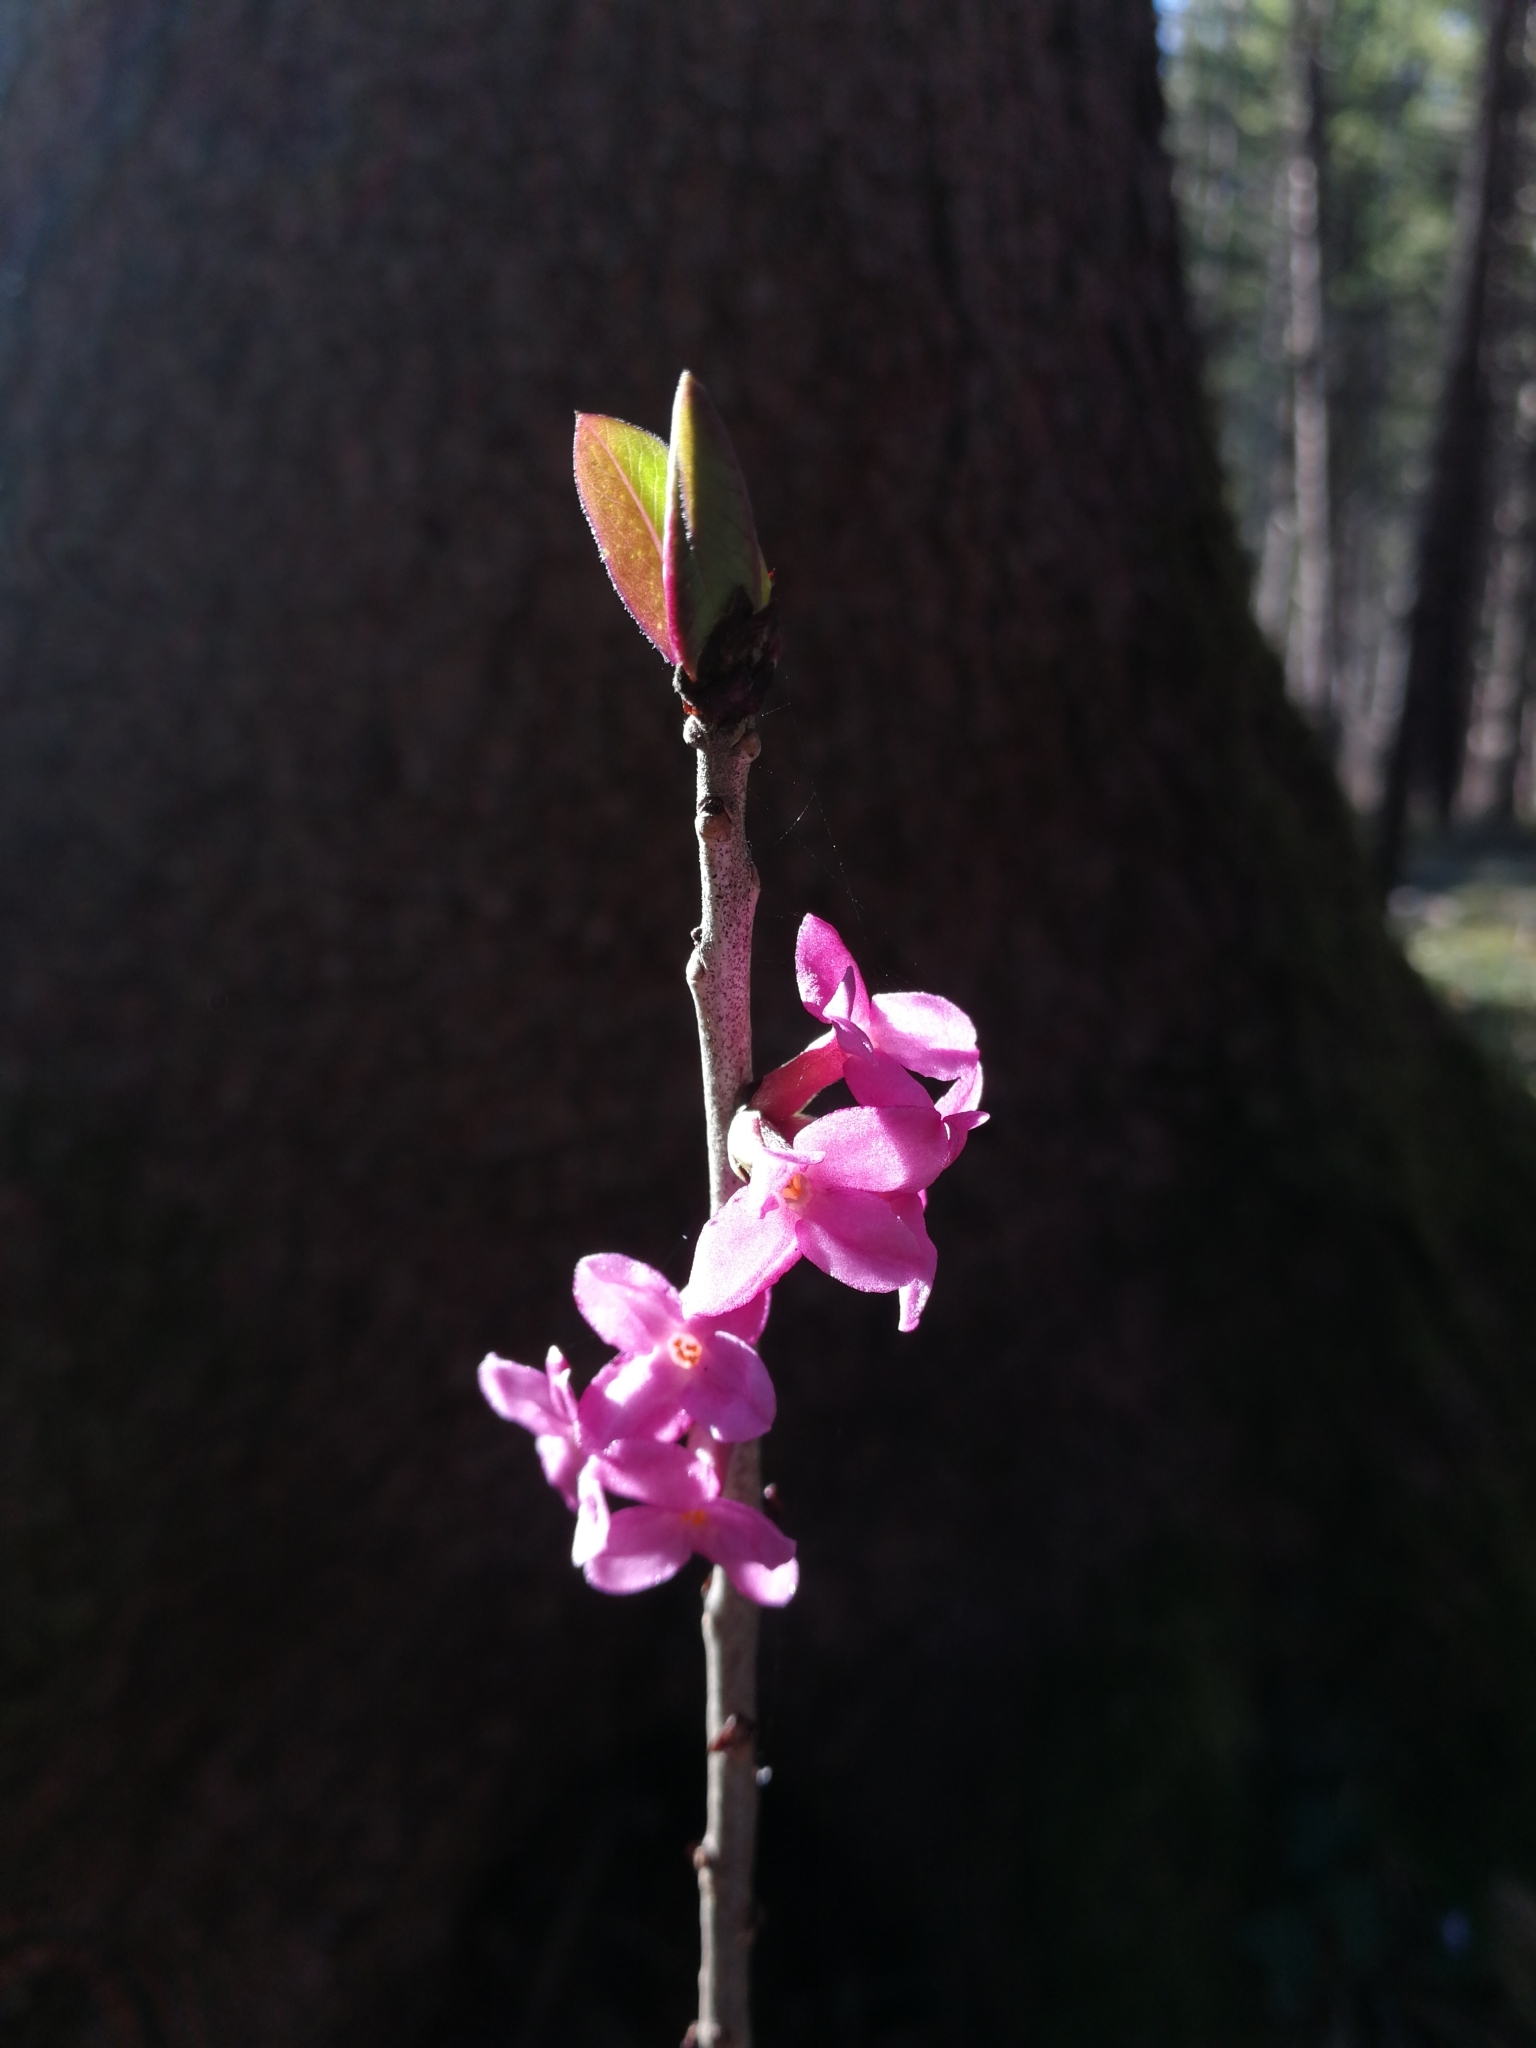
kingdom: Plantae
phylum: Tracheophyta
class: Magnoliopsida
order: Malvales
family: Thymelaeaceae
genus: Daphne
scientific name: Daphne mezereum
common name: Mezereon
